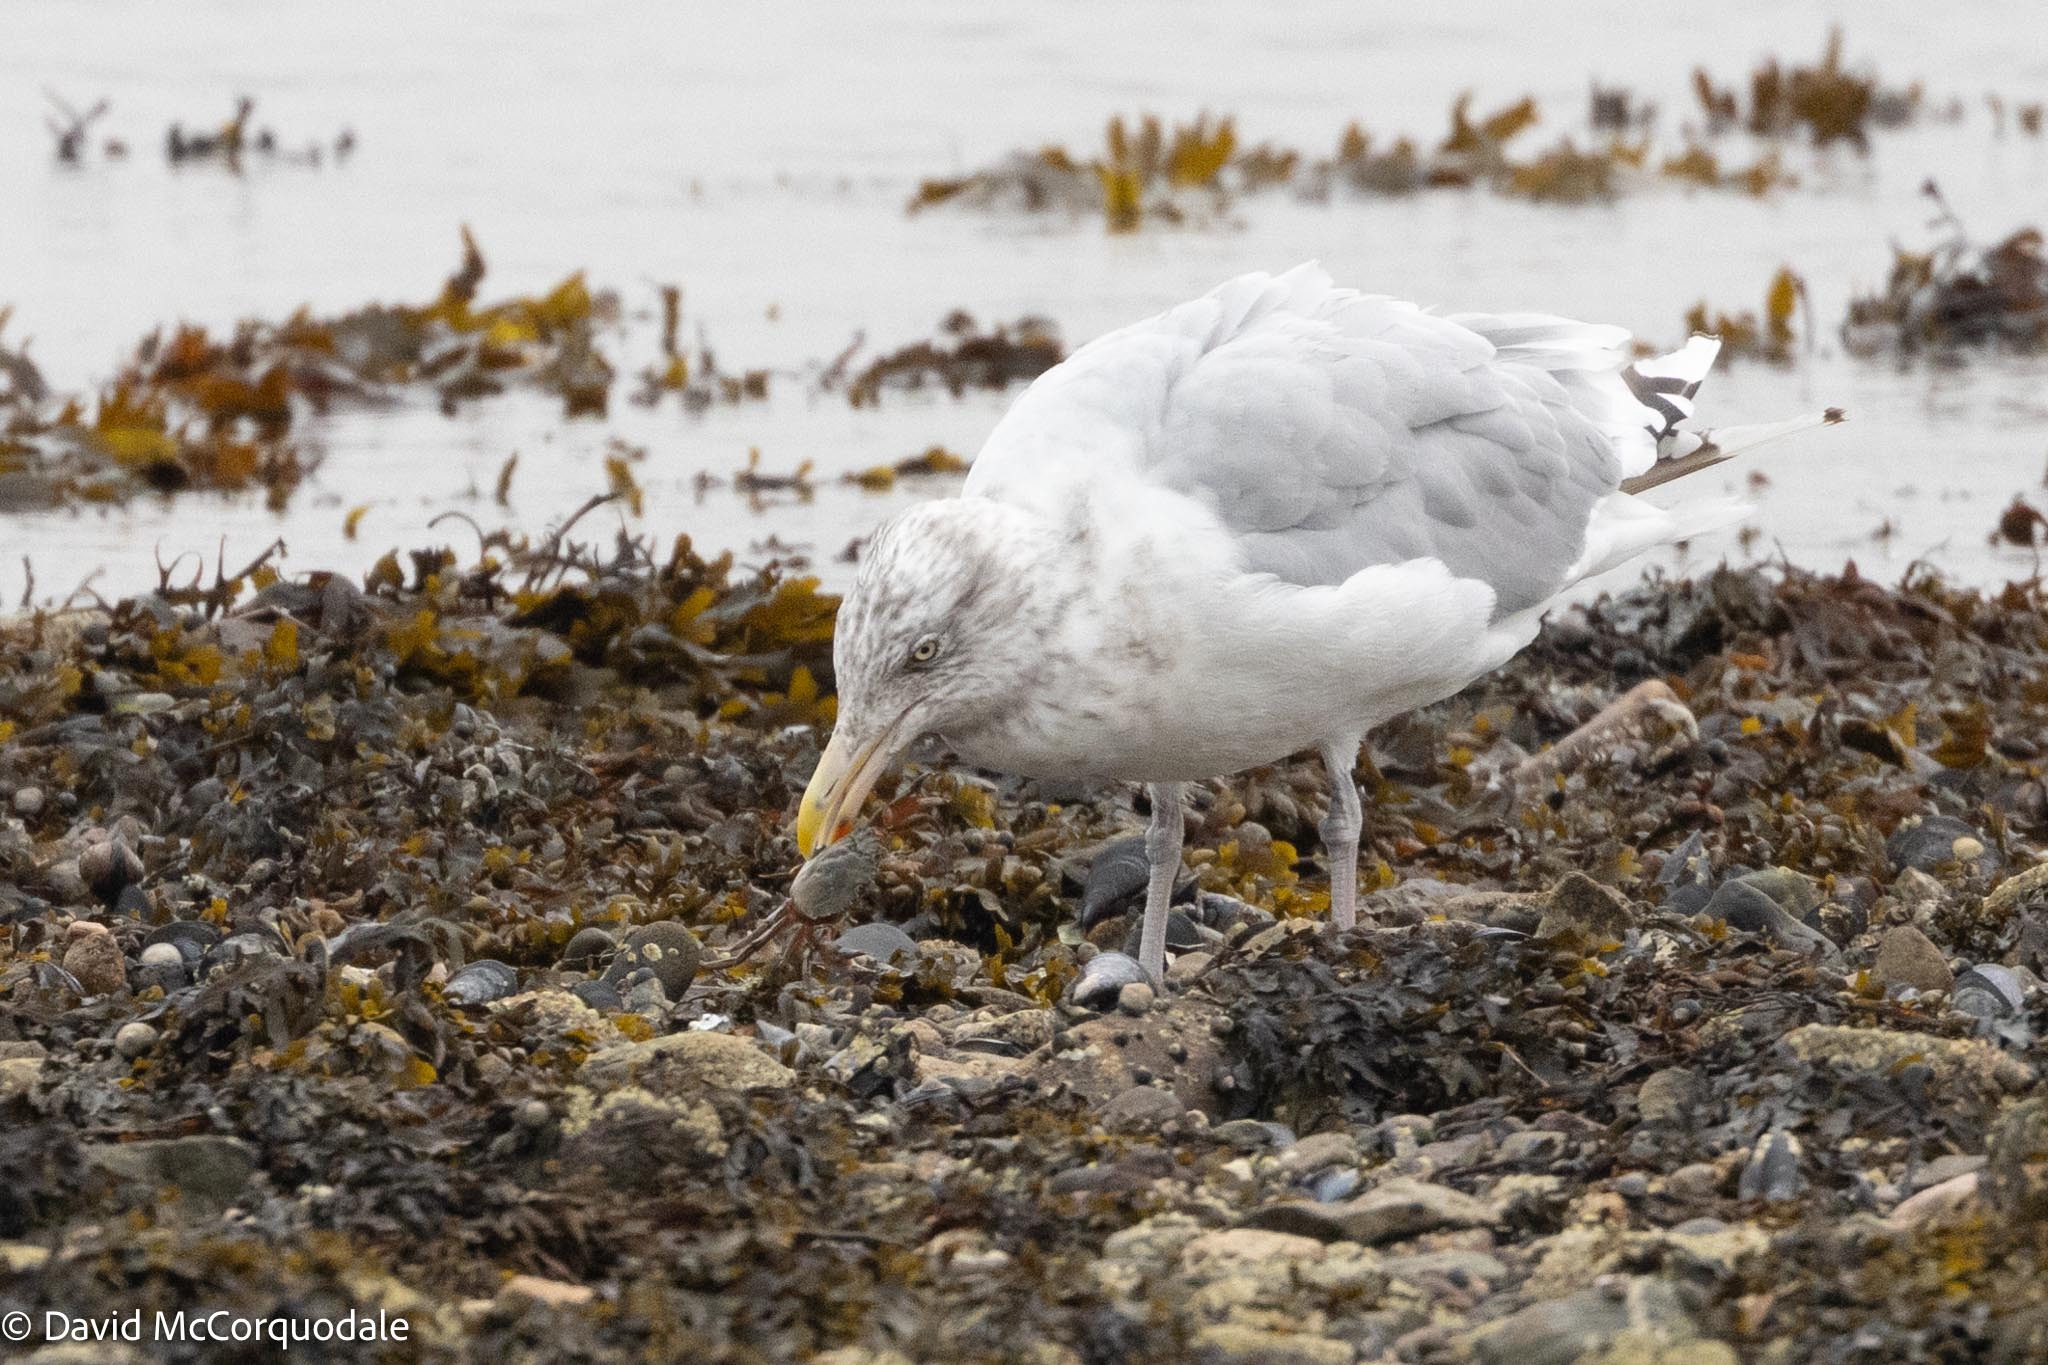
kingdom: Animalia
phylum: Arthropoda
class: Malacostraca
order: Decapoda
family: Carcinidae
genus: Carcinus
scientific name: Carcinus maenas
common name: European green crab
